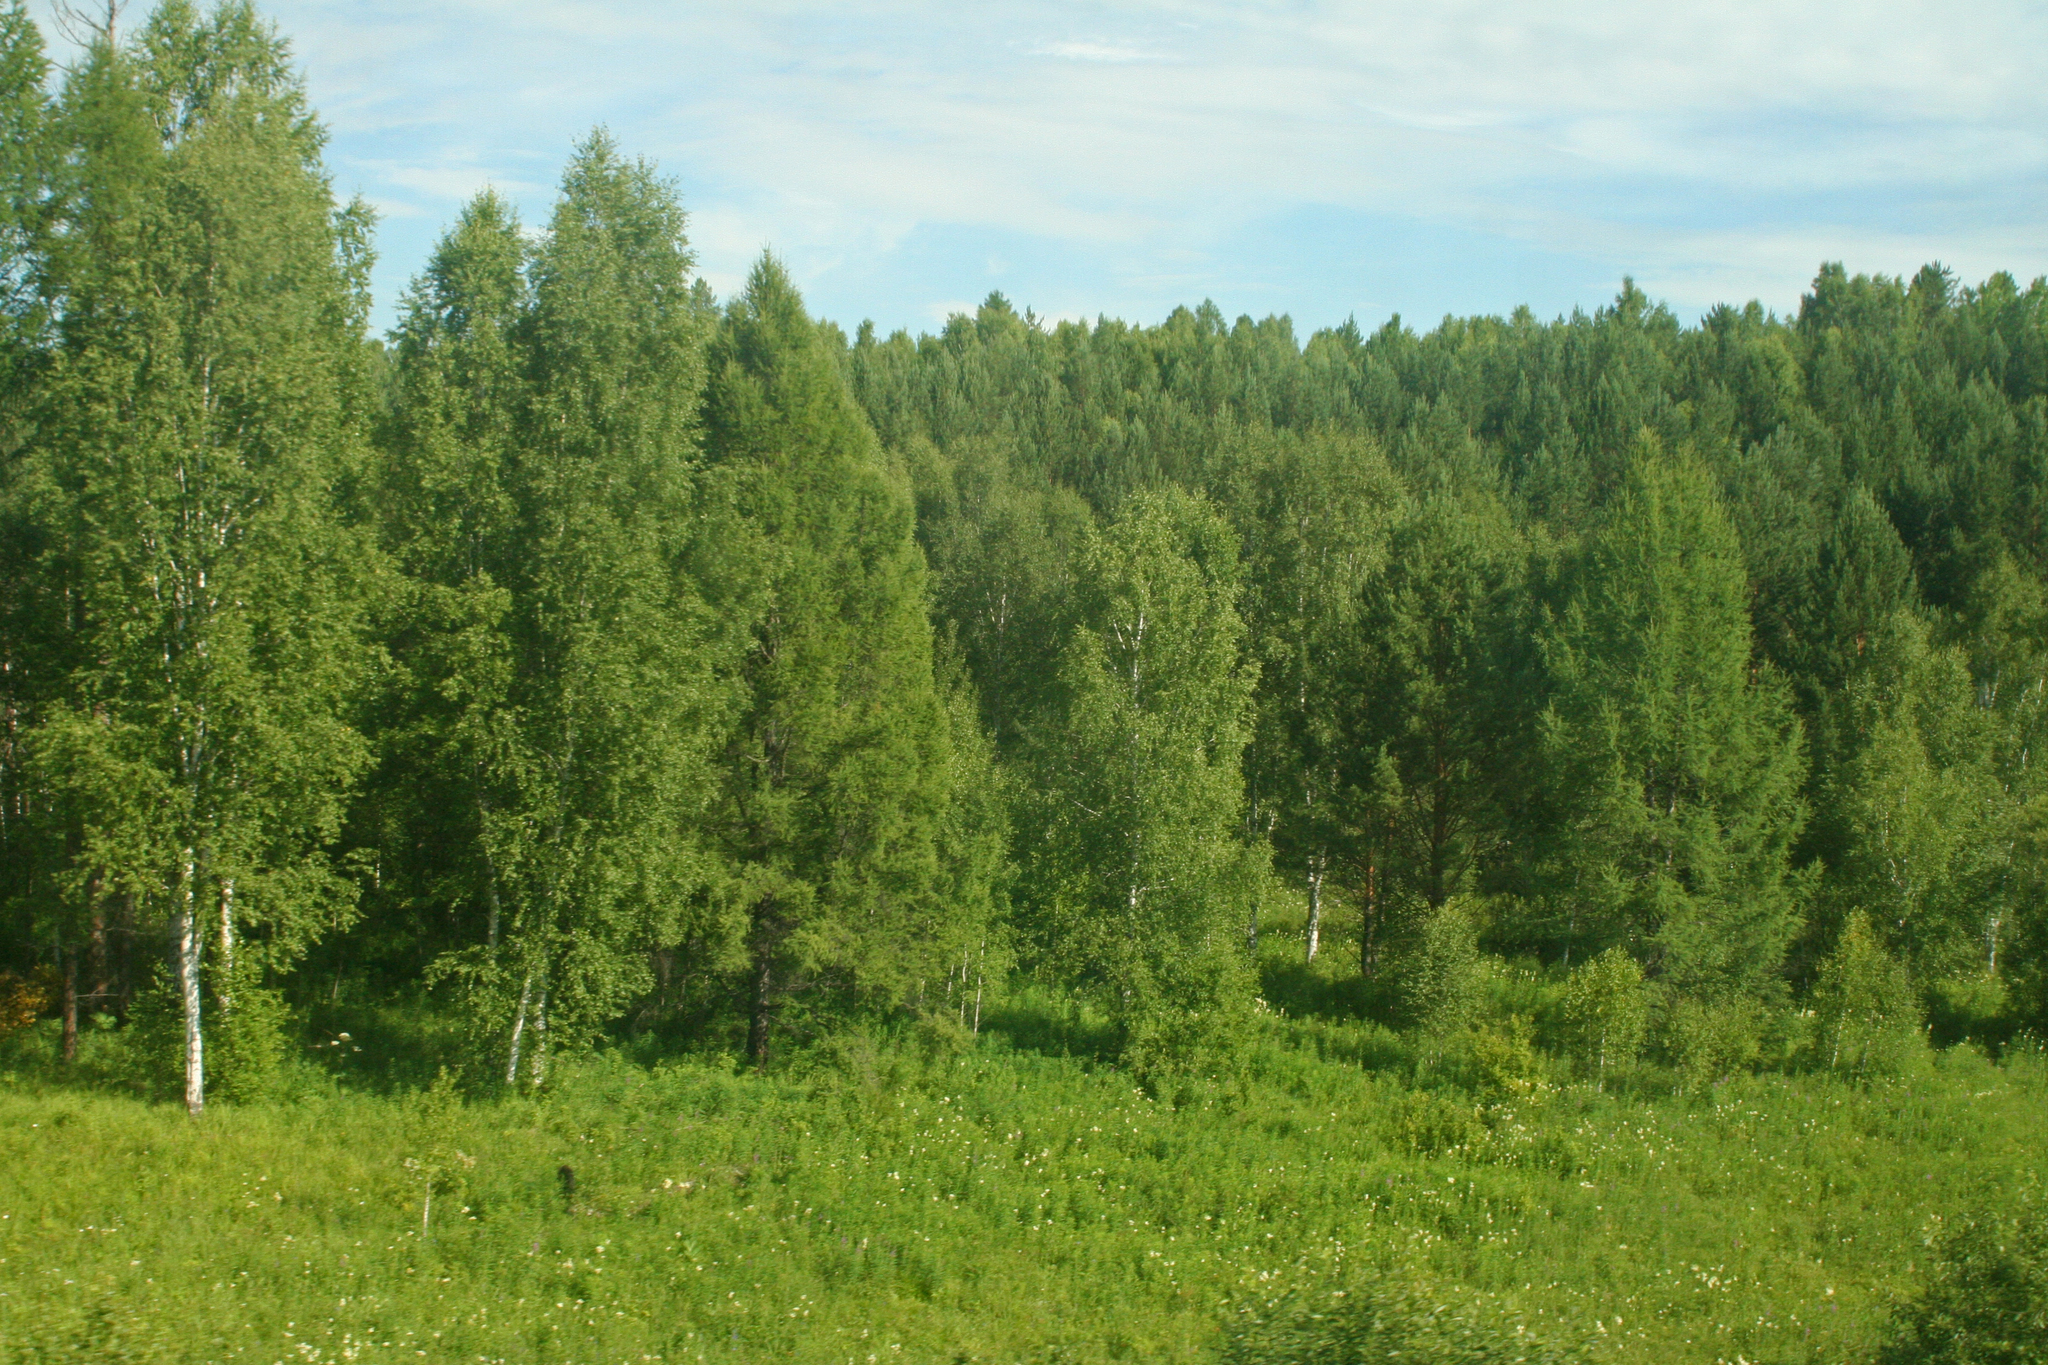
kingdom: Plantae
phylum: Tracheophyta
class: Pinopsida
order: Pinales
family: Pinaceae
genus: Larix
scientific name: Larix sibirica
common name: Siberian larch
